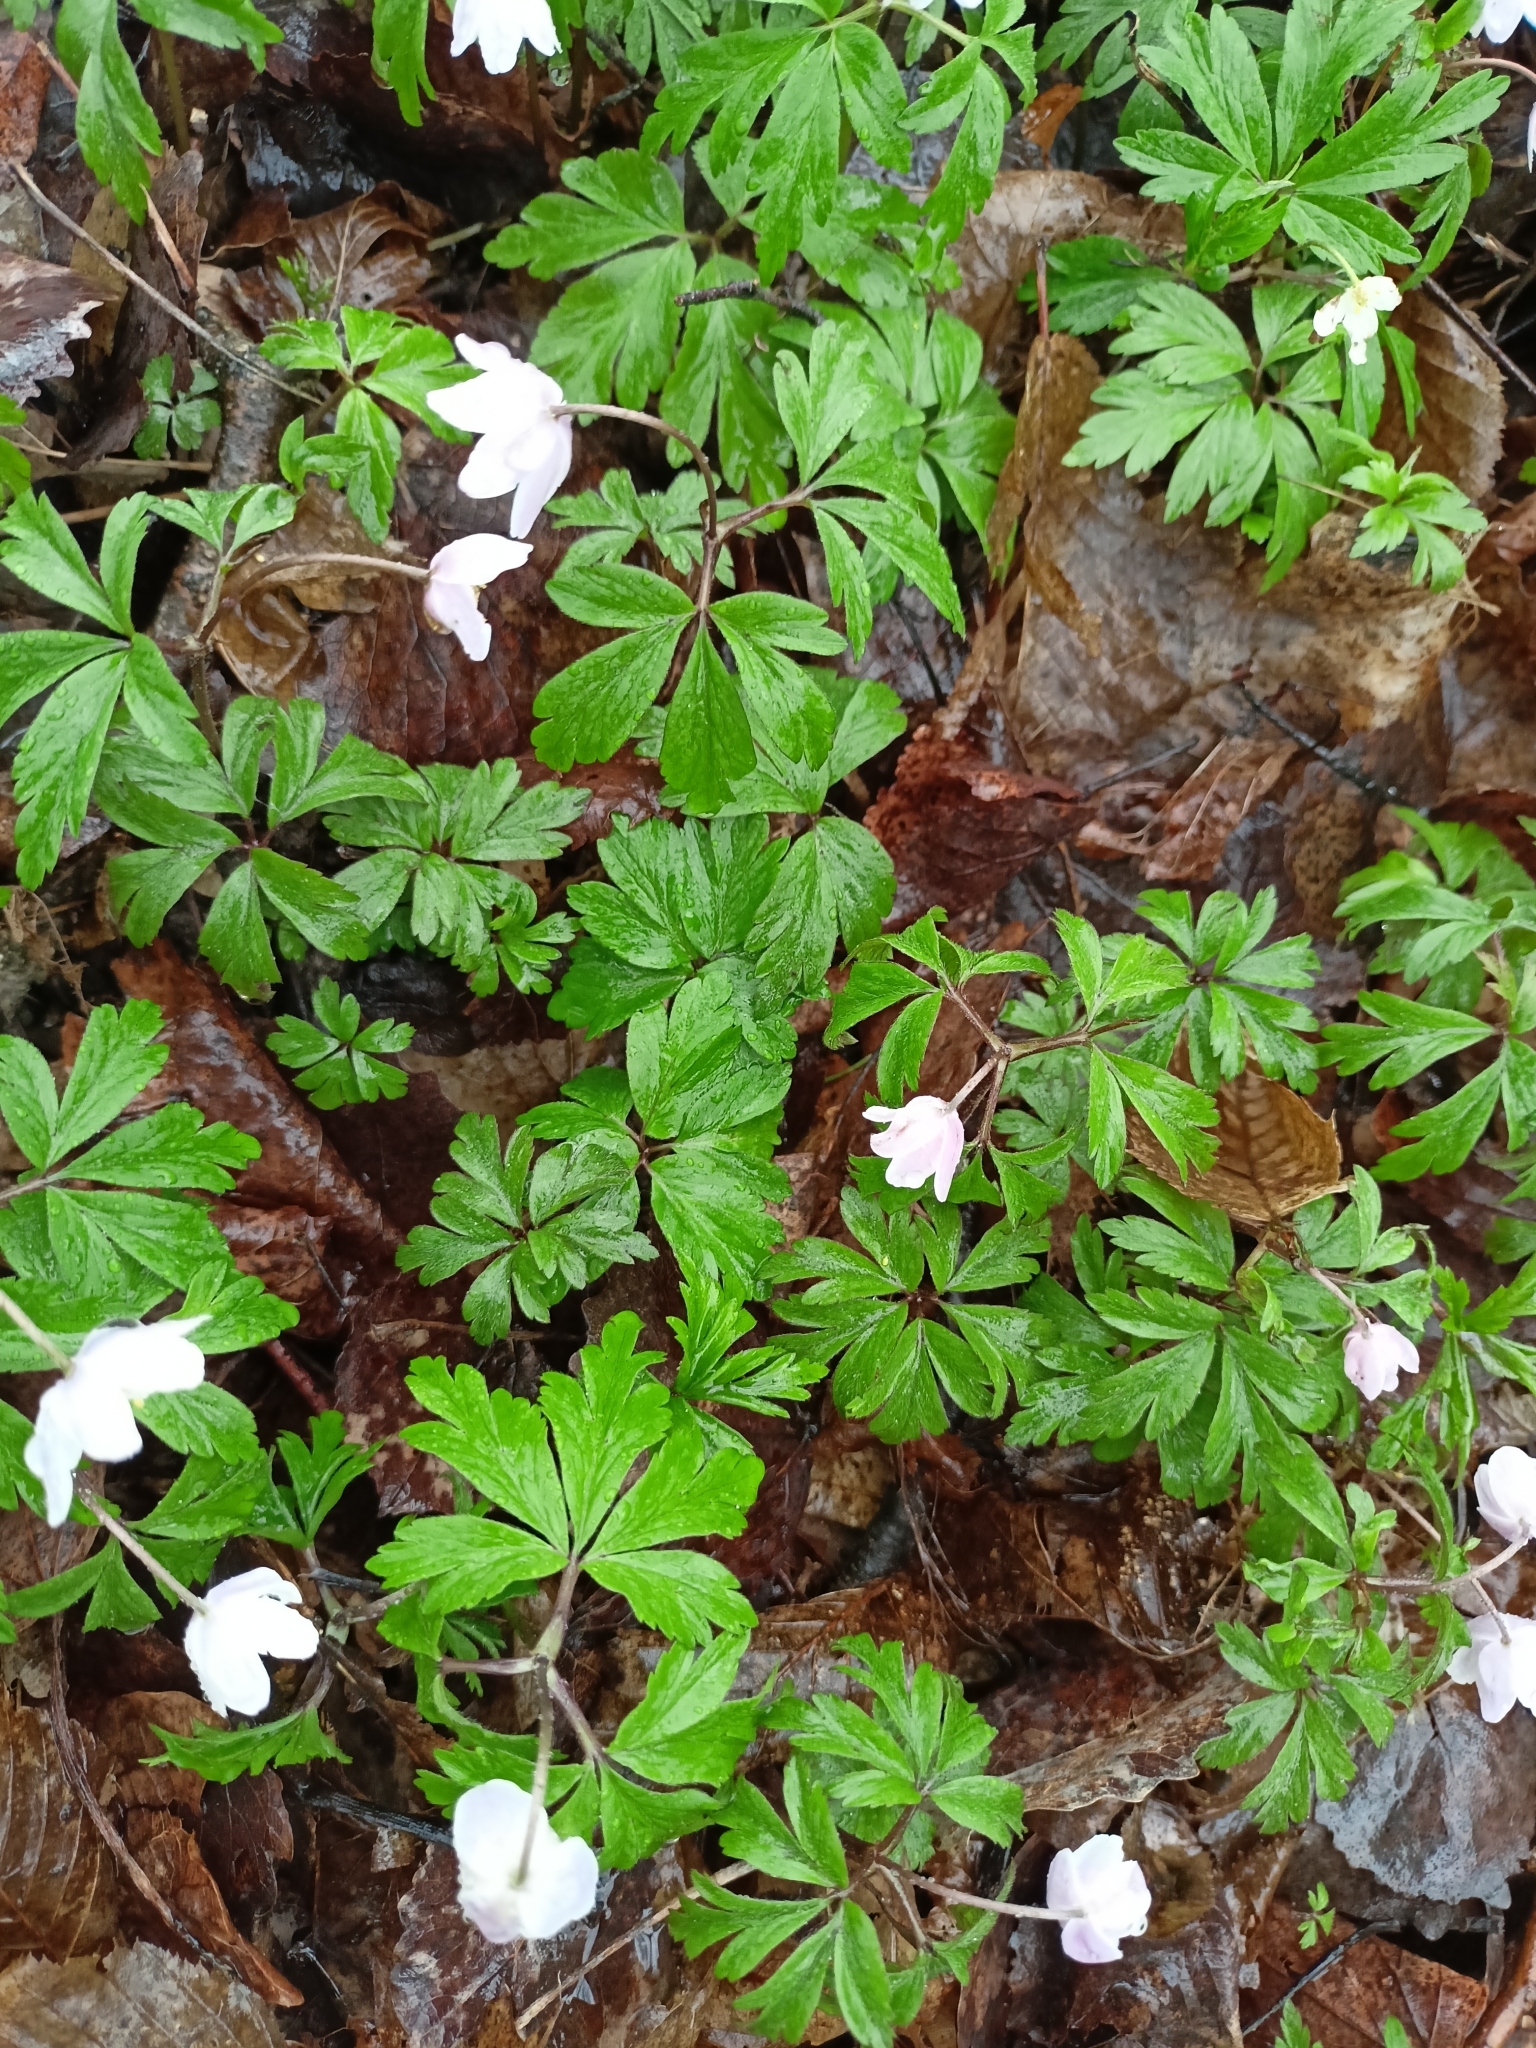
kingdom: Plantae
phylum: Tracheophyta
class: Magnoliopsida
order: Ranunculales
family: Ranunculaceae
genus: Anemone
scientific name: Anemone nemorosa
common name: Wood anemone
